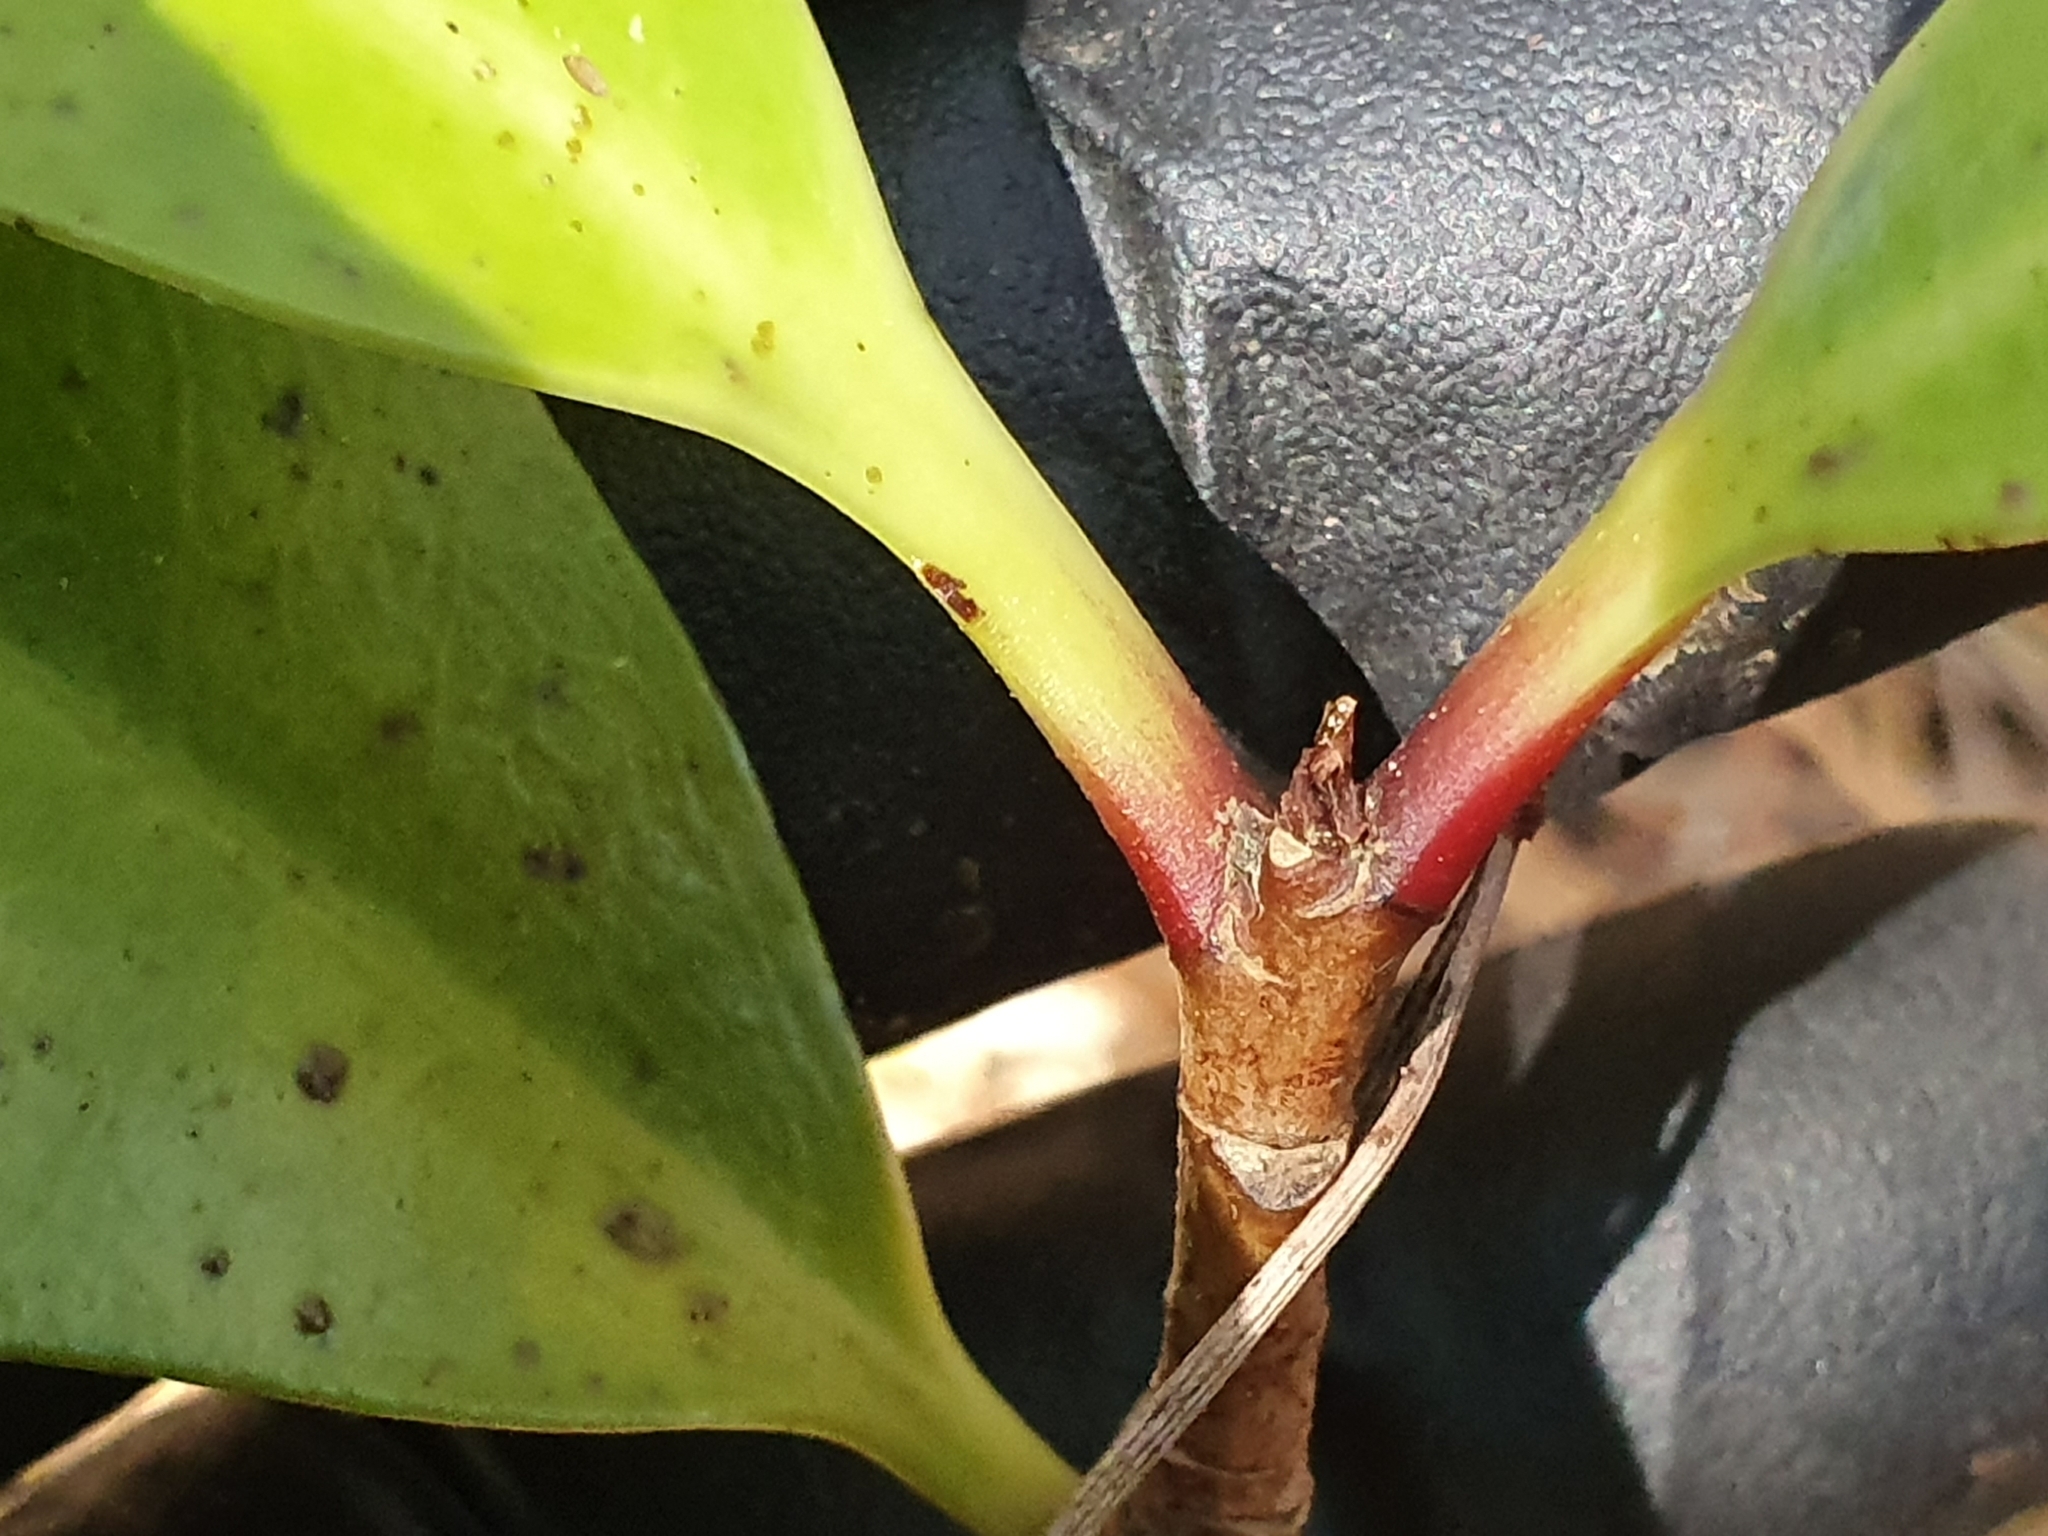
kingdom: Plantae
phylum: Tracheophyta
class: Magnoliopsida
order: Cucurbitales
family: Corynocarpaceae
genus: Corynocarpus
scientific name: Corynocarpus laevigatus
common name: New zealand laurel
